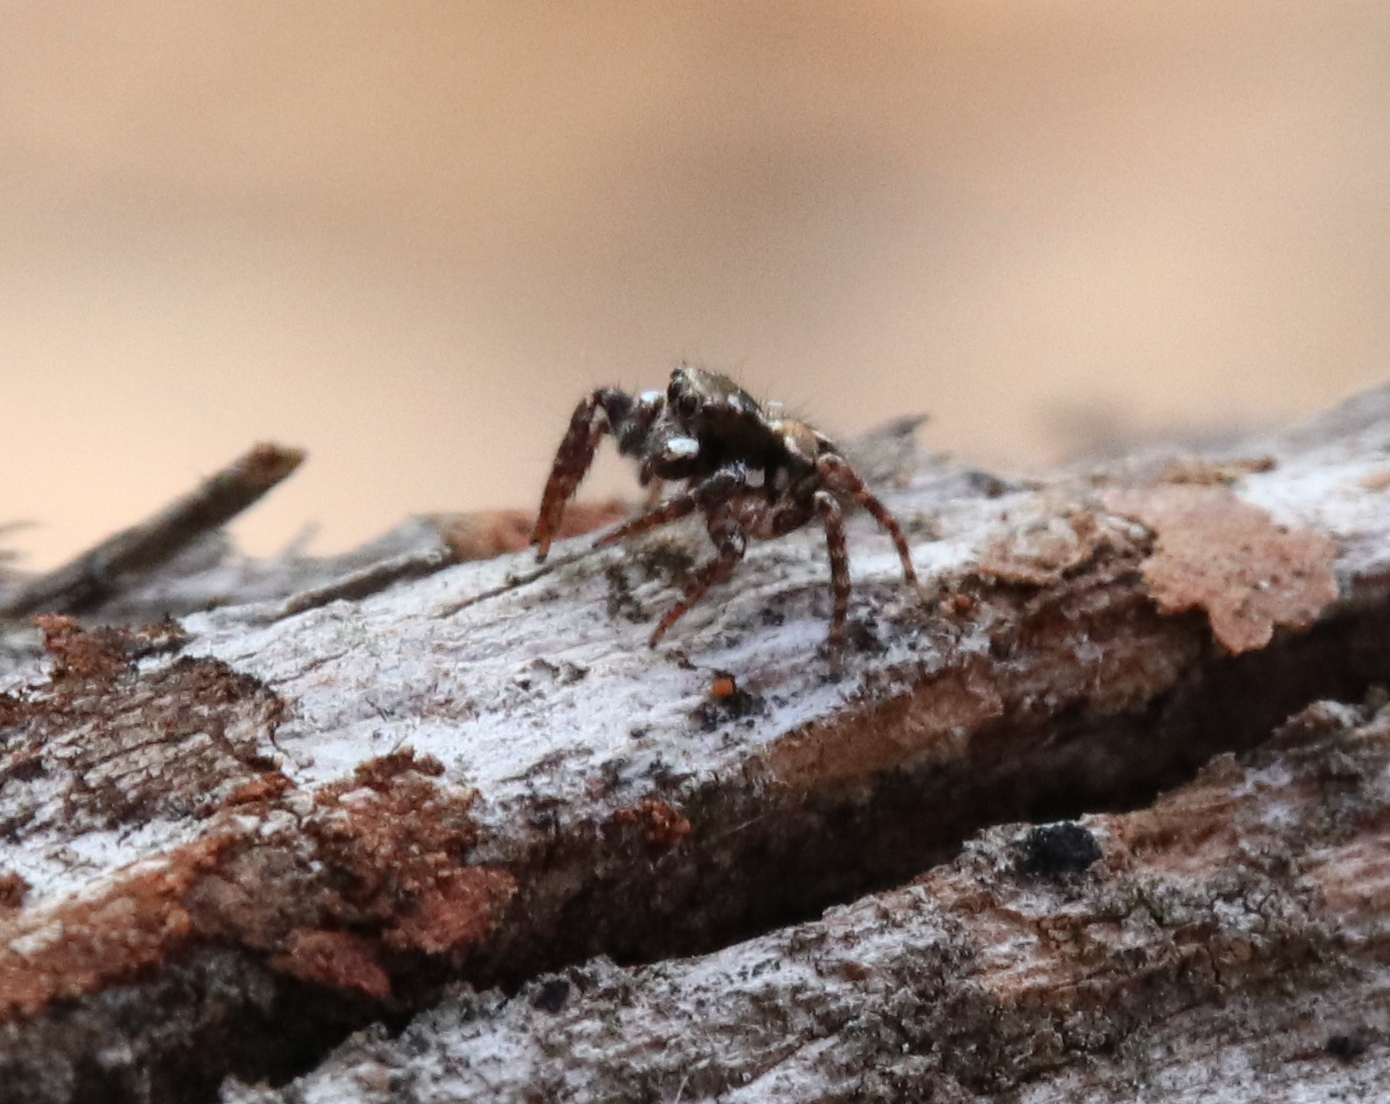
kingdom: Animalia
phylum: Arthropoda
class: Arachnida
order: Araneae
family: Salticidae
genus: Anasaitis
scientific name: Anasaitis canosa
